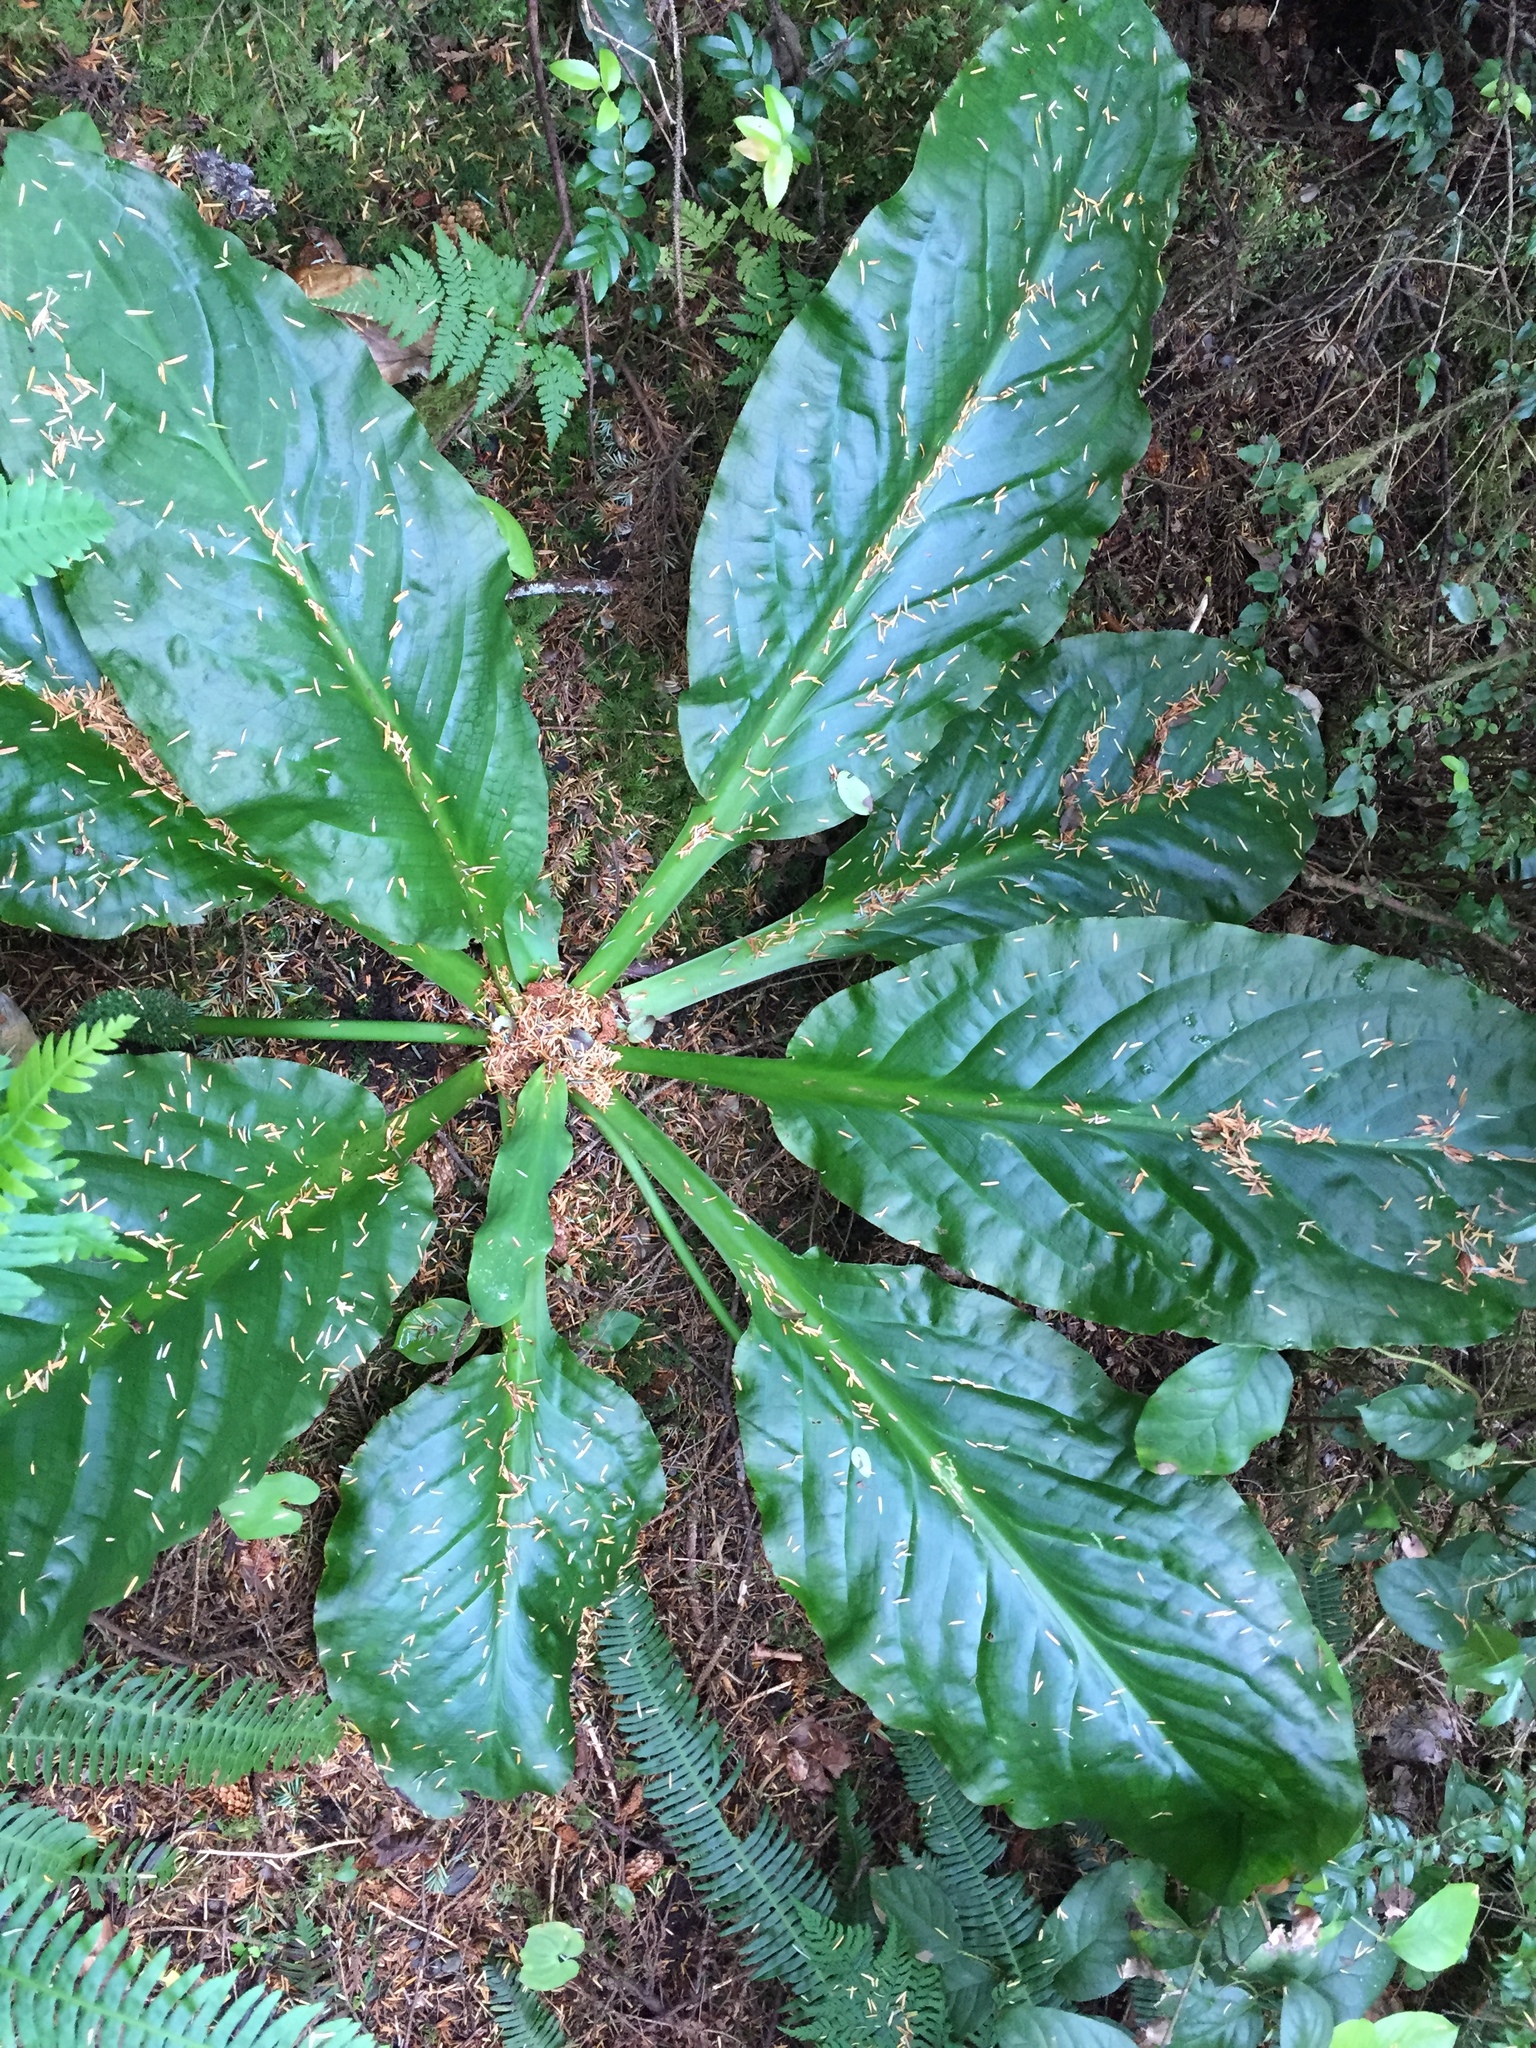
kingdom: Plantae
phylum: Tracheophyta
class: Liliopsida
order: Alismatales
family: Araceae
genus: Lysichiton
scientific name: Lysichiton americanus
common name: American skunk cabbage
